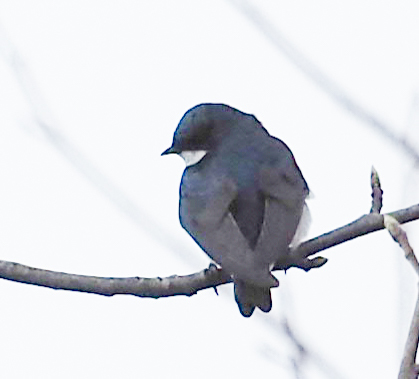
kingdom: Animalia
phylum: Chordata
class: Aves
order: Passeriformes
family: Hirundinidae
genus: Tachycineta
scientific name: Tachycineta bicolor
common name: Tree swallow
